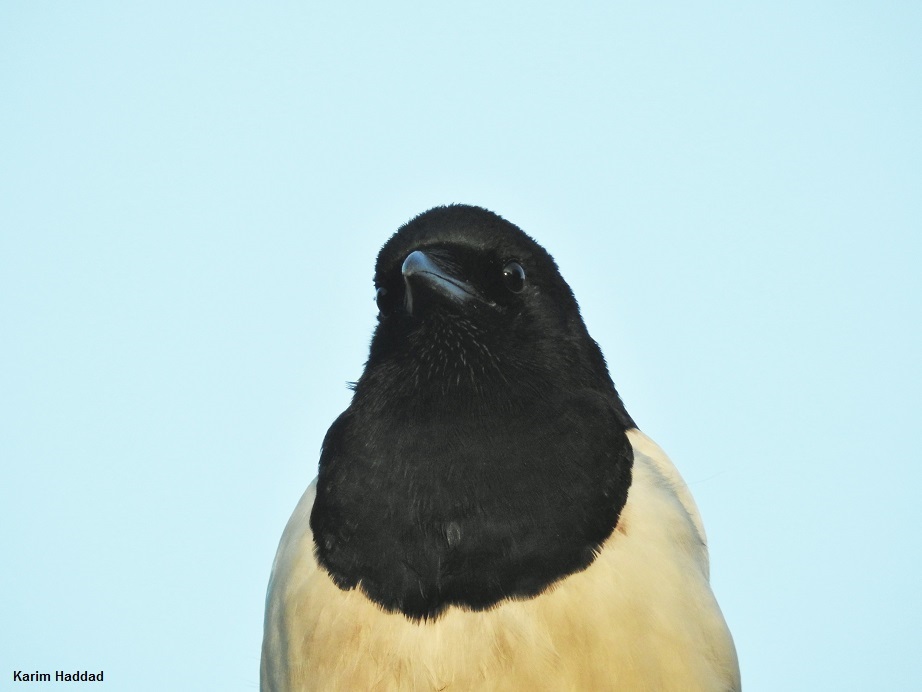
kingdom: Animalia
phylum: Chordata
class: Aves
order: Passeriformes
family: Corvidae
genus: Pica
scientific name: Pica pica
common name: Eurasian magpie
